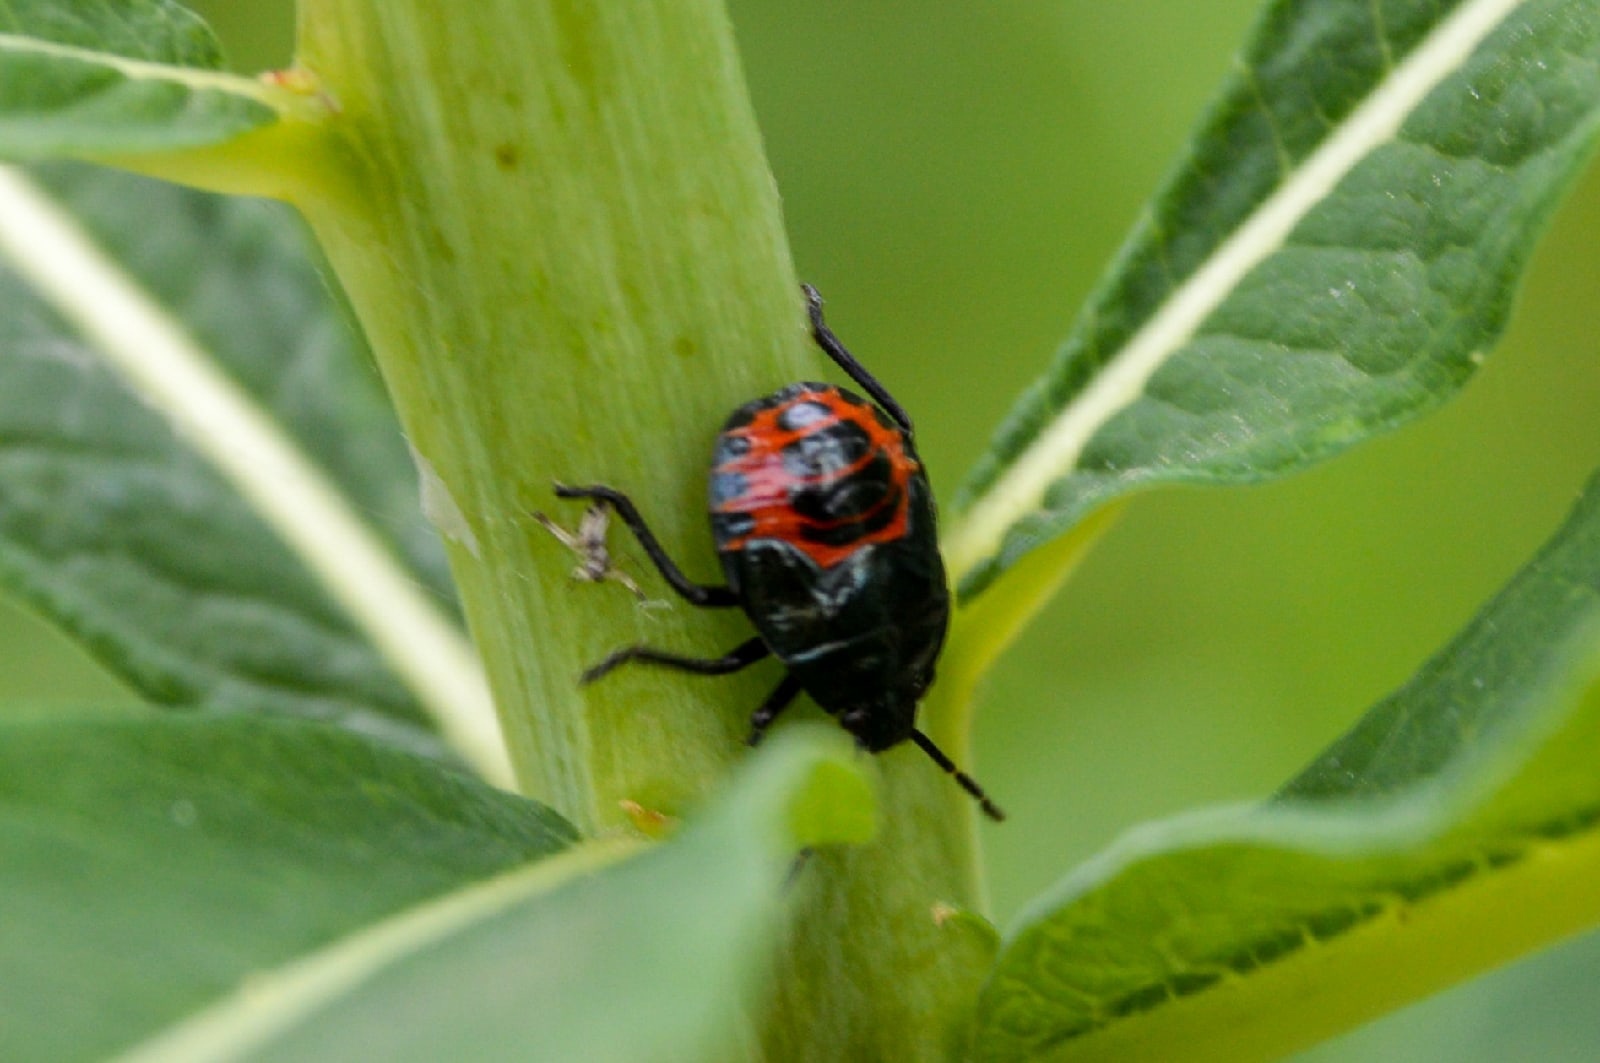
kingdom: Animalia
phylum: Arthropoda
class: Insecta
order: Hemiptera
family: Pentatomidae
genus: Zicrona
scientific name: Zicrona caerulea
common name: Blue shieldbug
